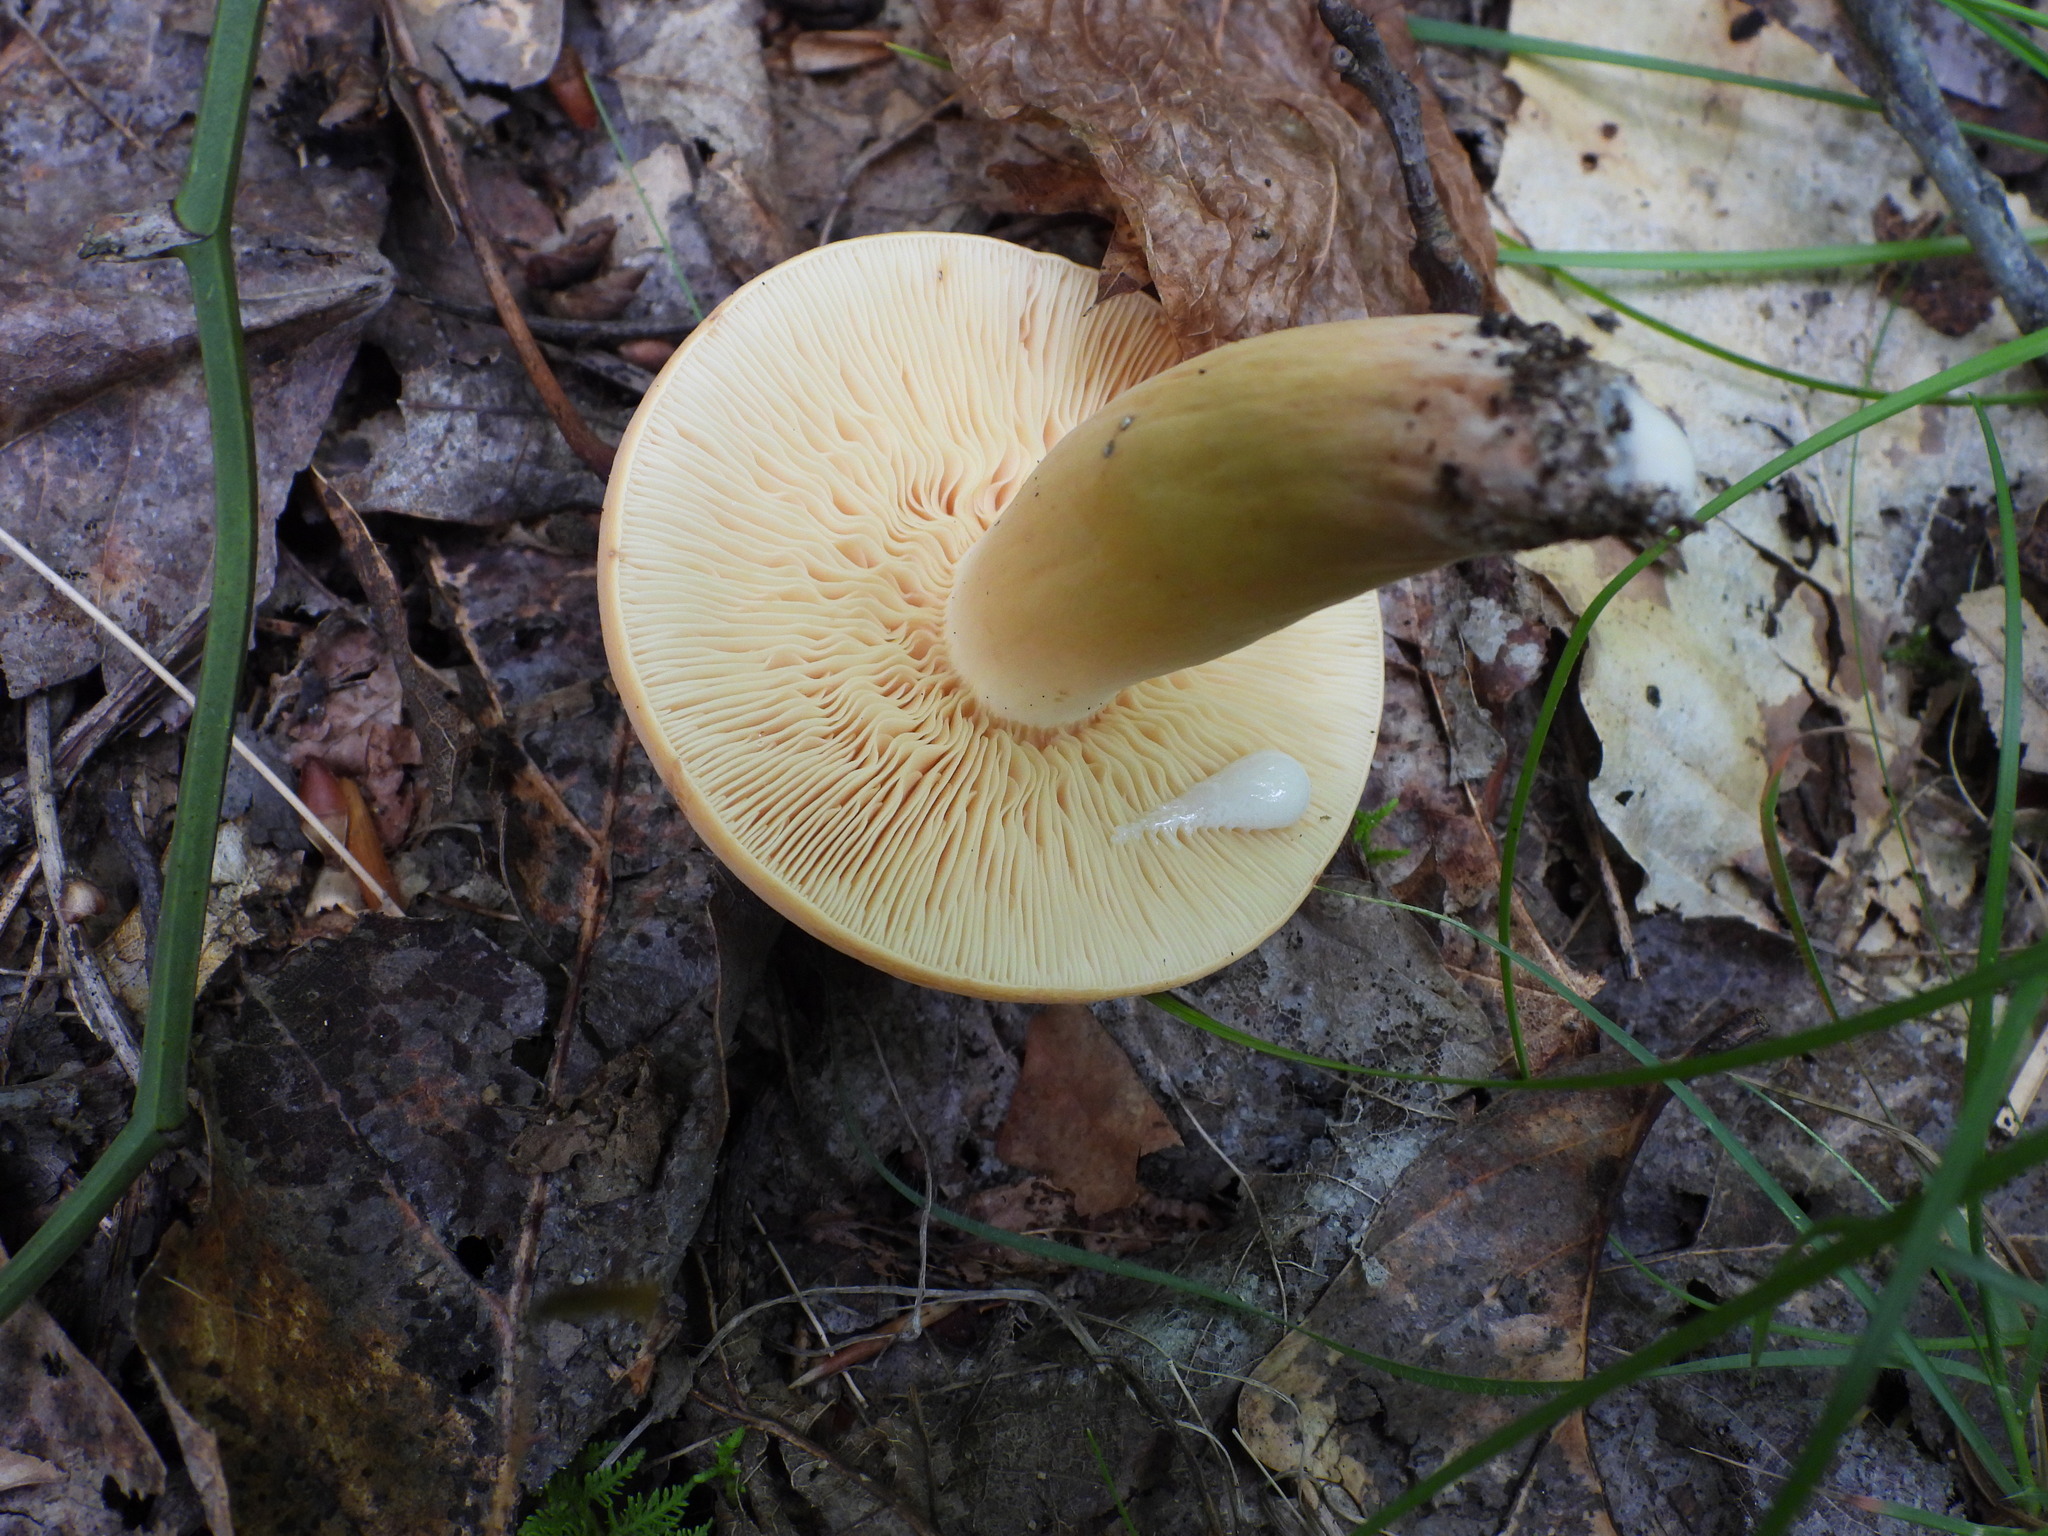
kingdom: Fungi
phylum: Basidiomycota
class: Agaricomycetes
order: Russulales
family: Russulaceae
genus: Lactifluus
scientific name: Lactifluus volemus
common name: Fishy milkcap
